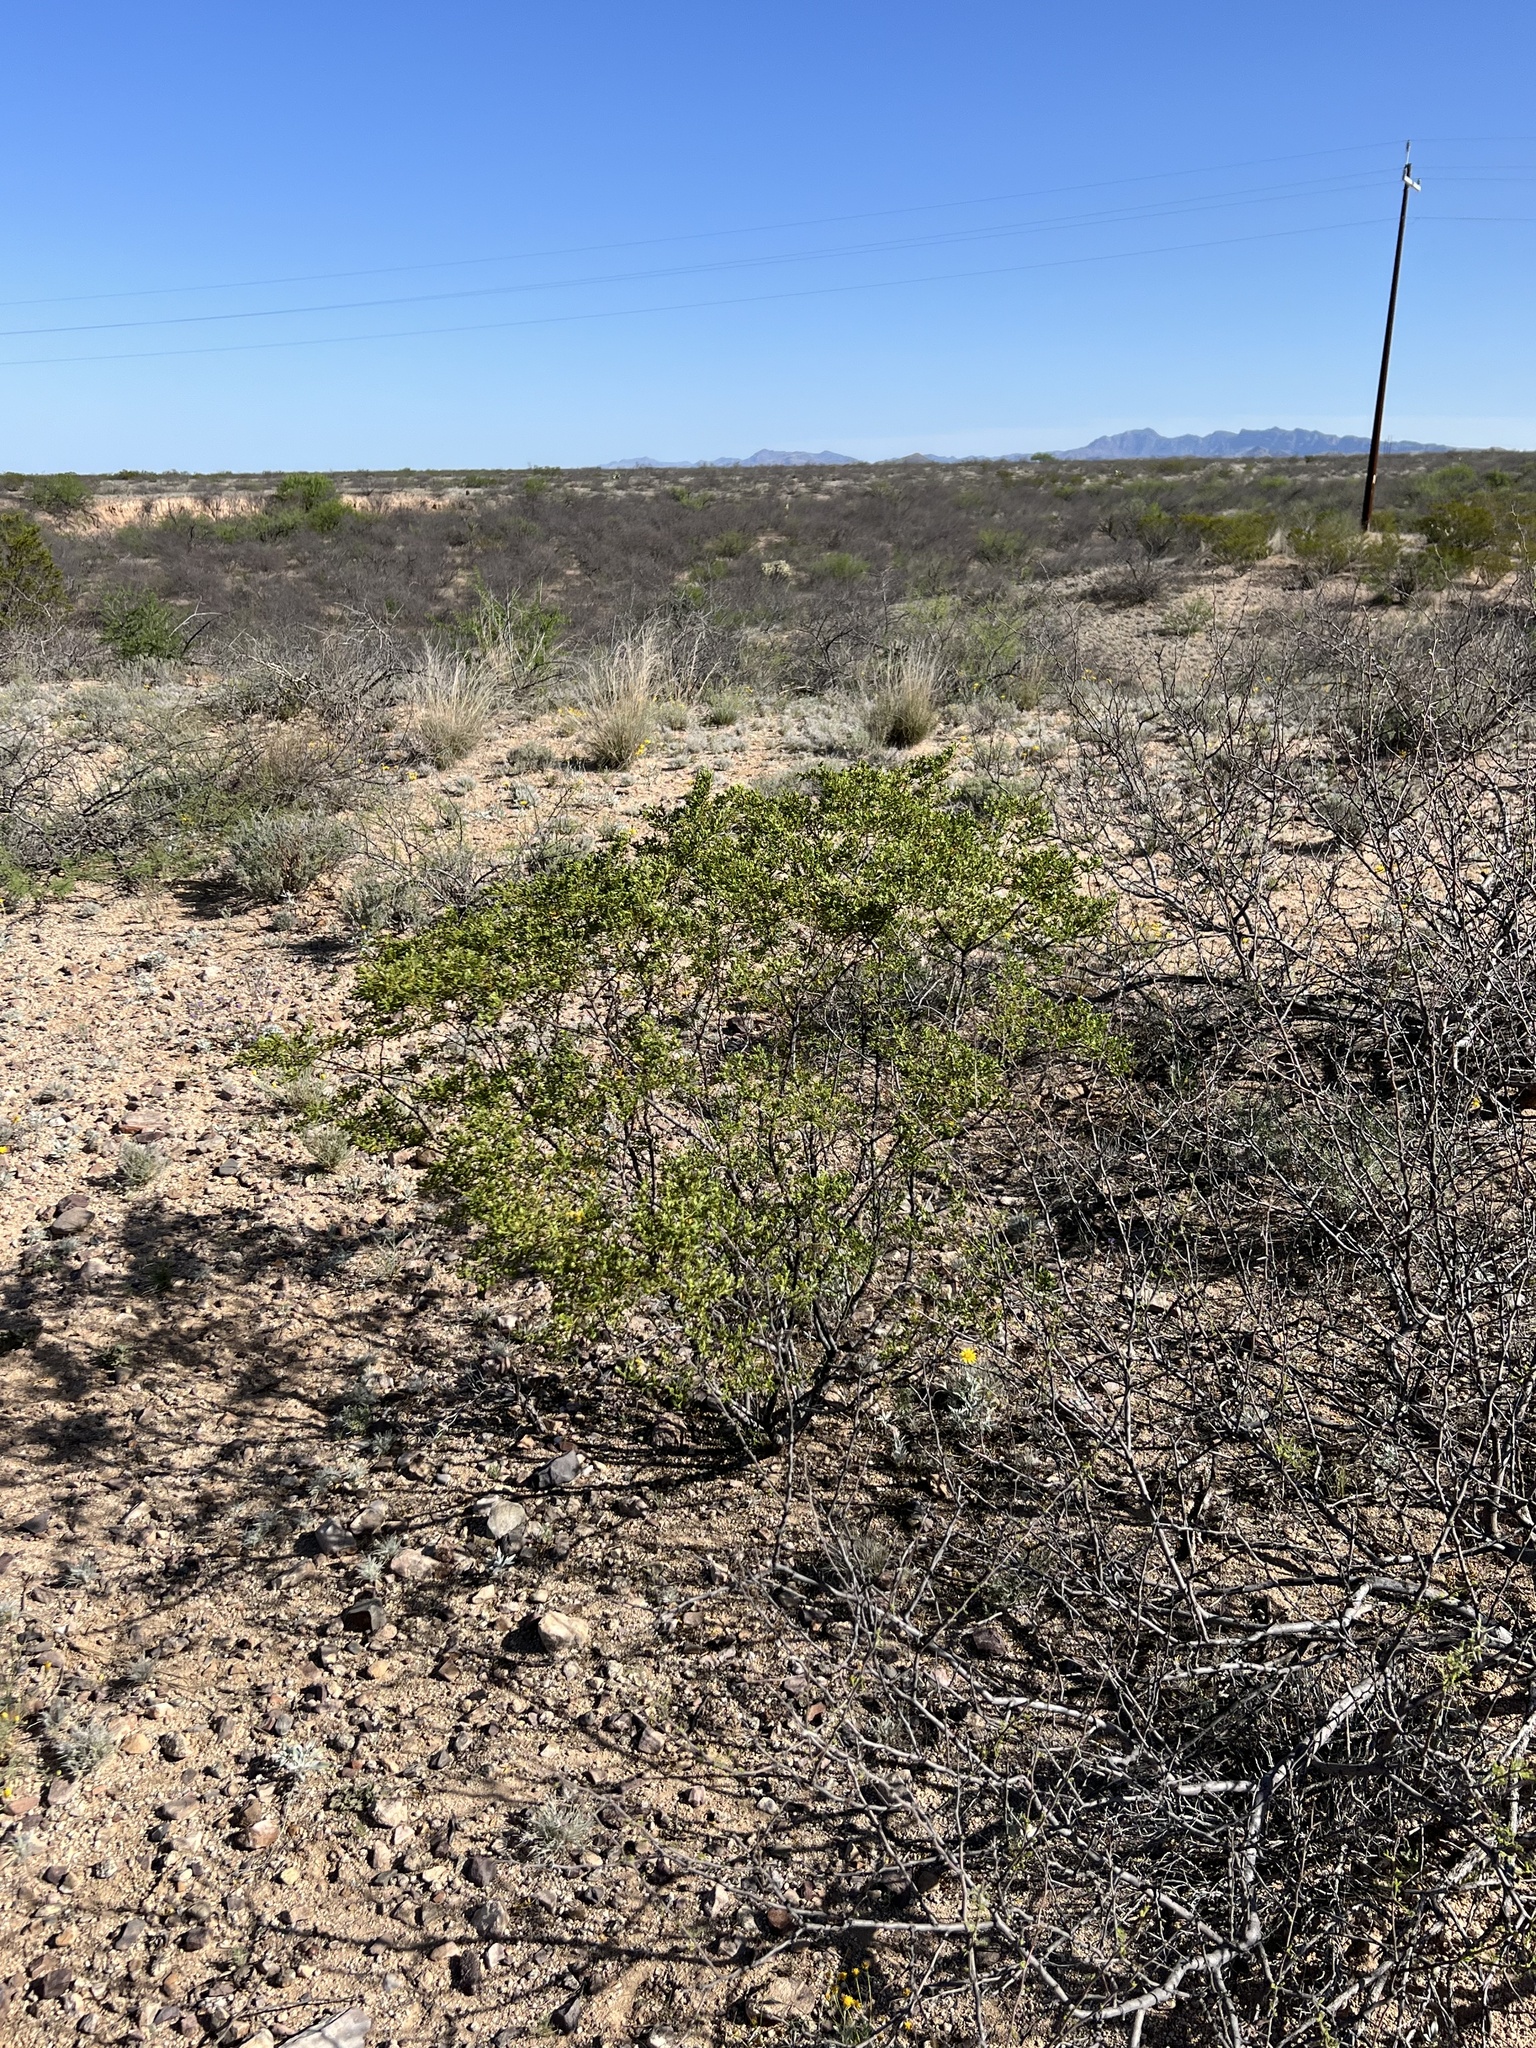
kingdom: Plantae
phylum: Tracheophyta
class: Magnoliopsida
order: Zygophyllales
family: Zygophyllaceae
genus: Larrea
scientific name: Larrea tridentata
